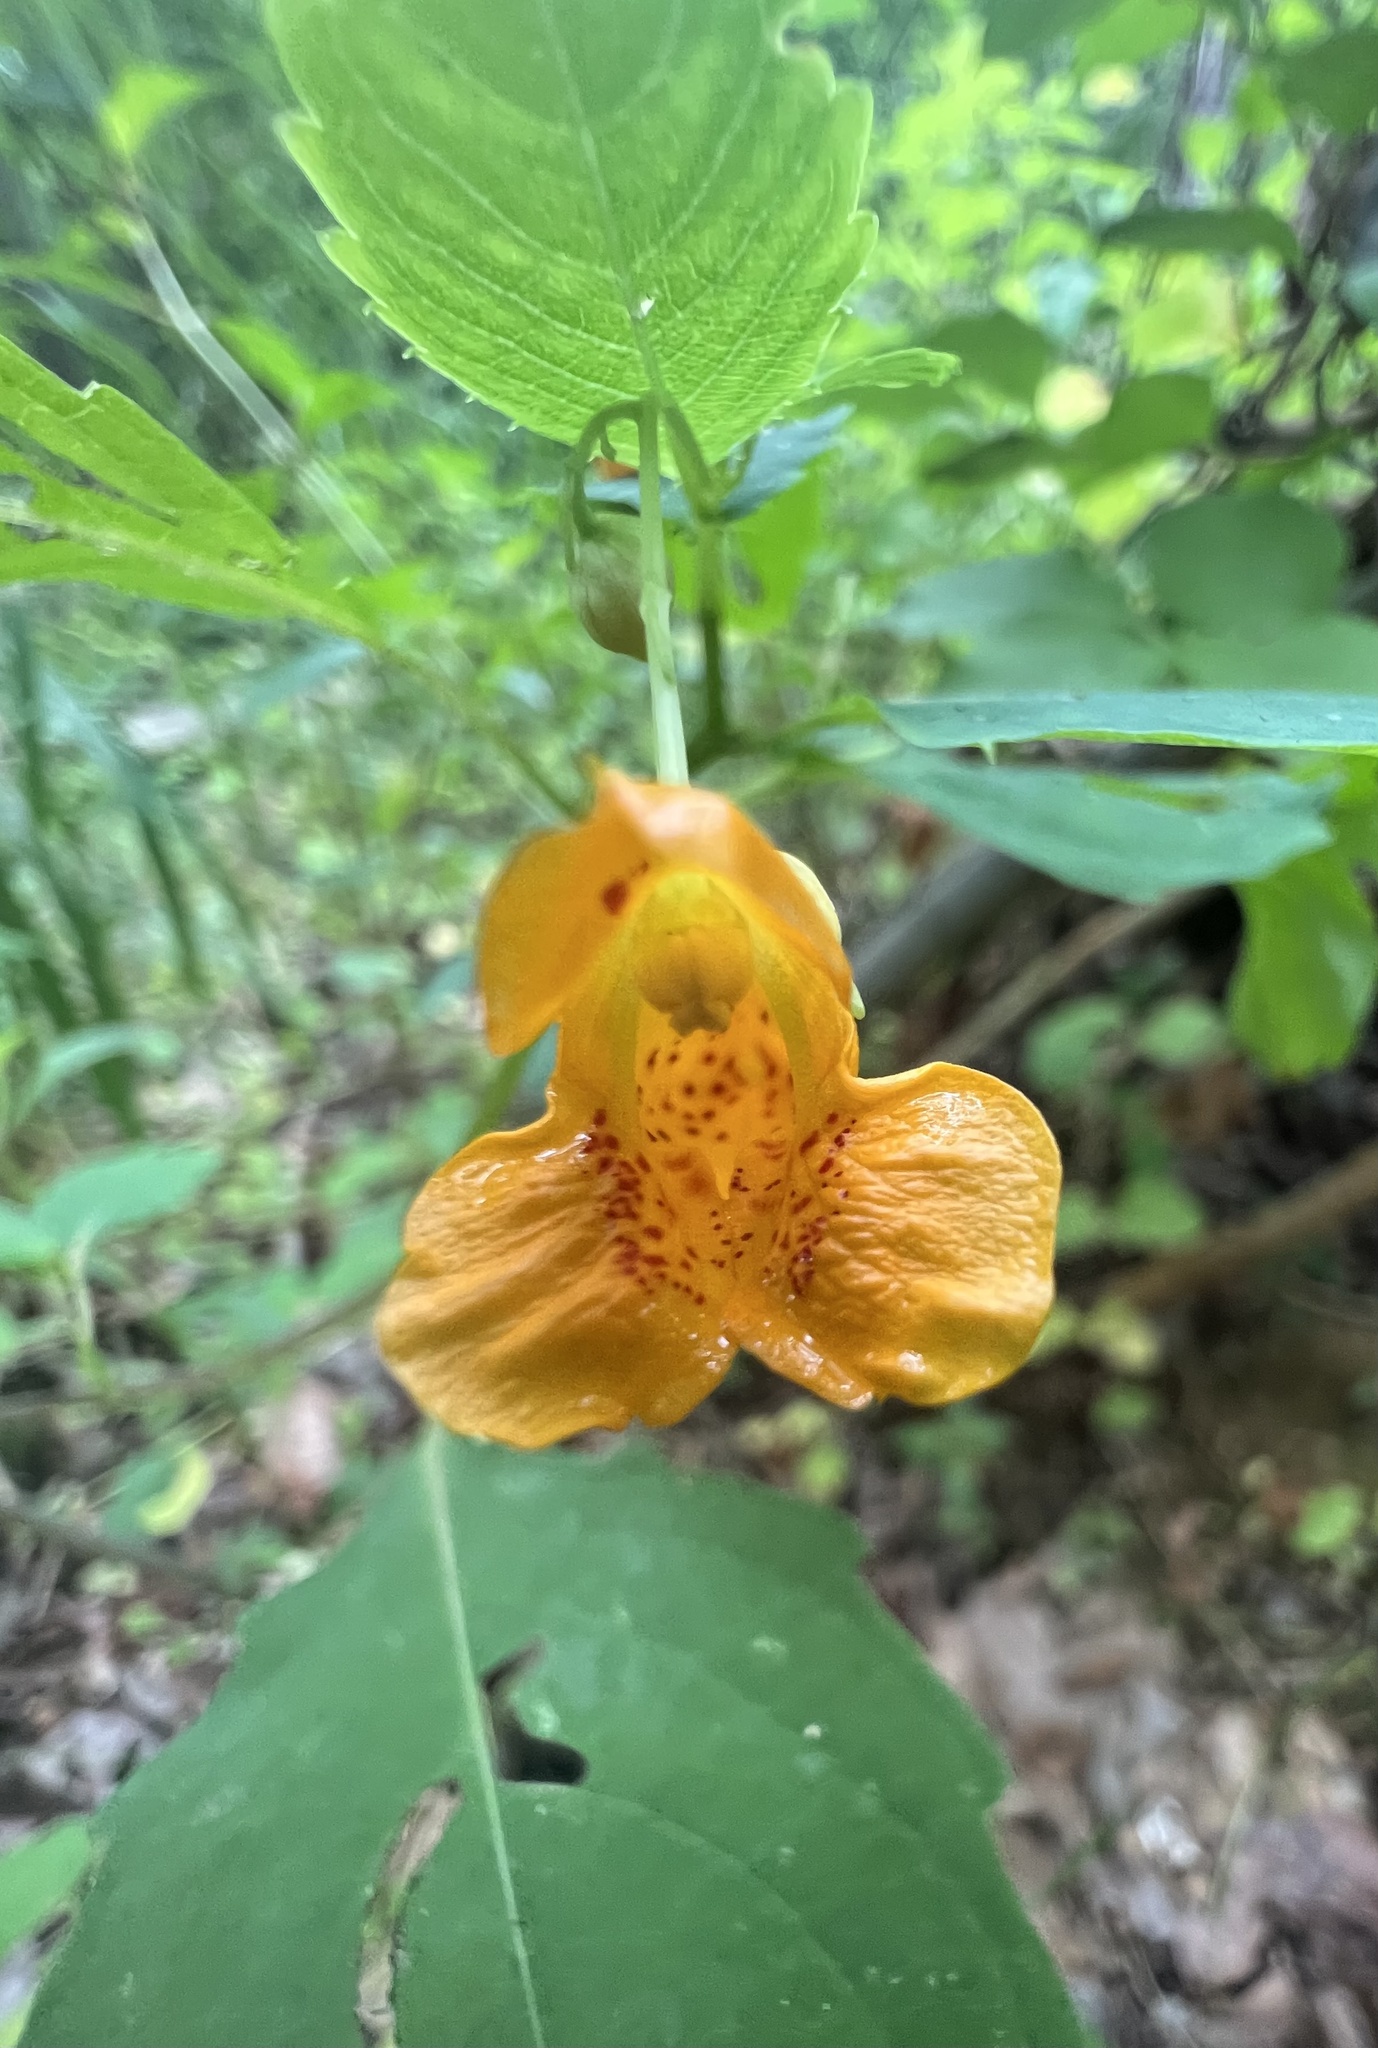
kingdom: Plantae
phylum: Tracheophyta
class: Magnoliopsida
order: Ericales
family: Balsaminaceae
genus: Impatiens
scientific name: Impatiens capensis
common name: Orange balsam
